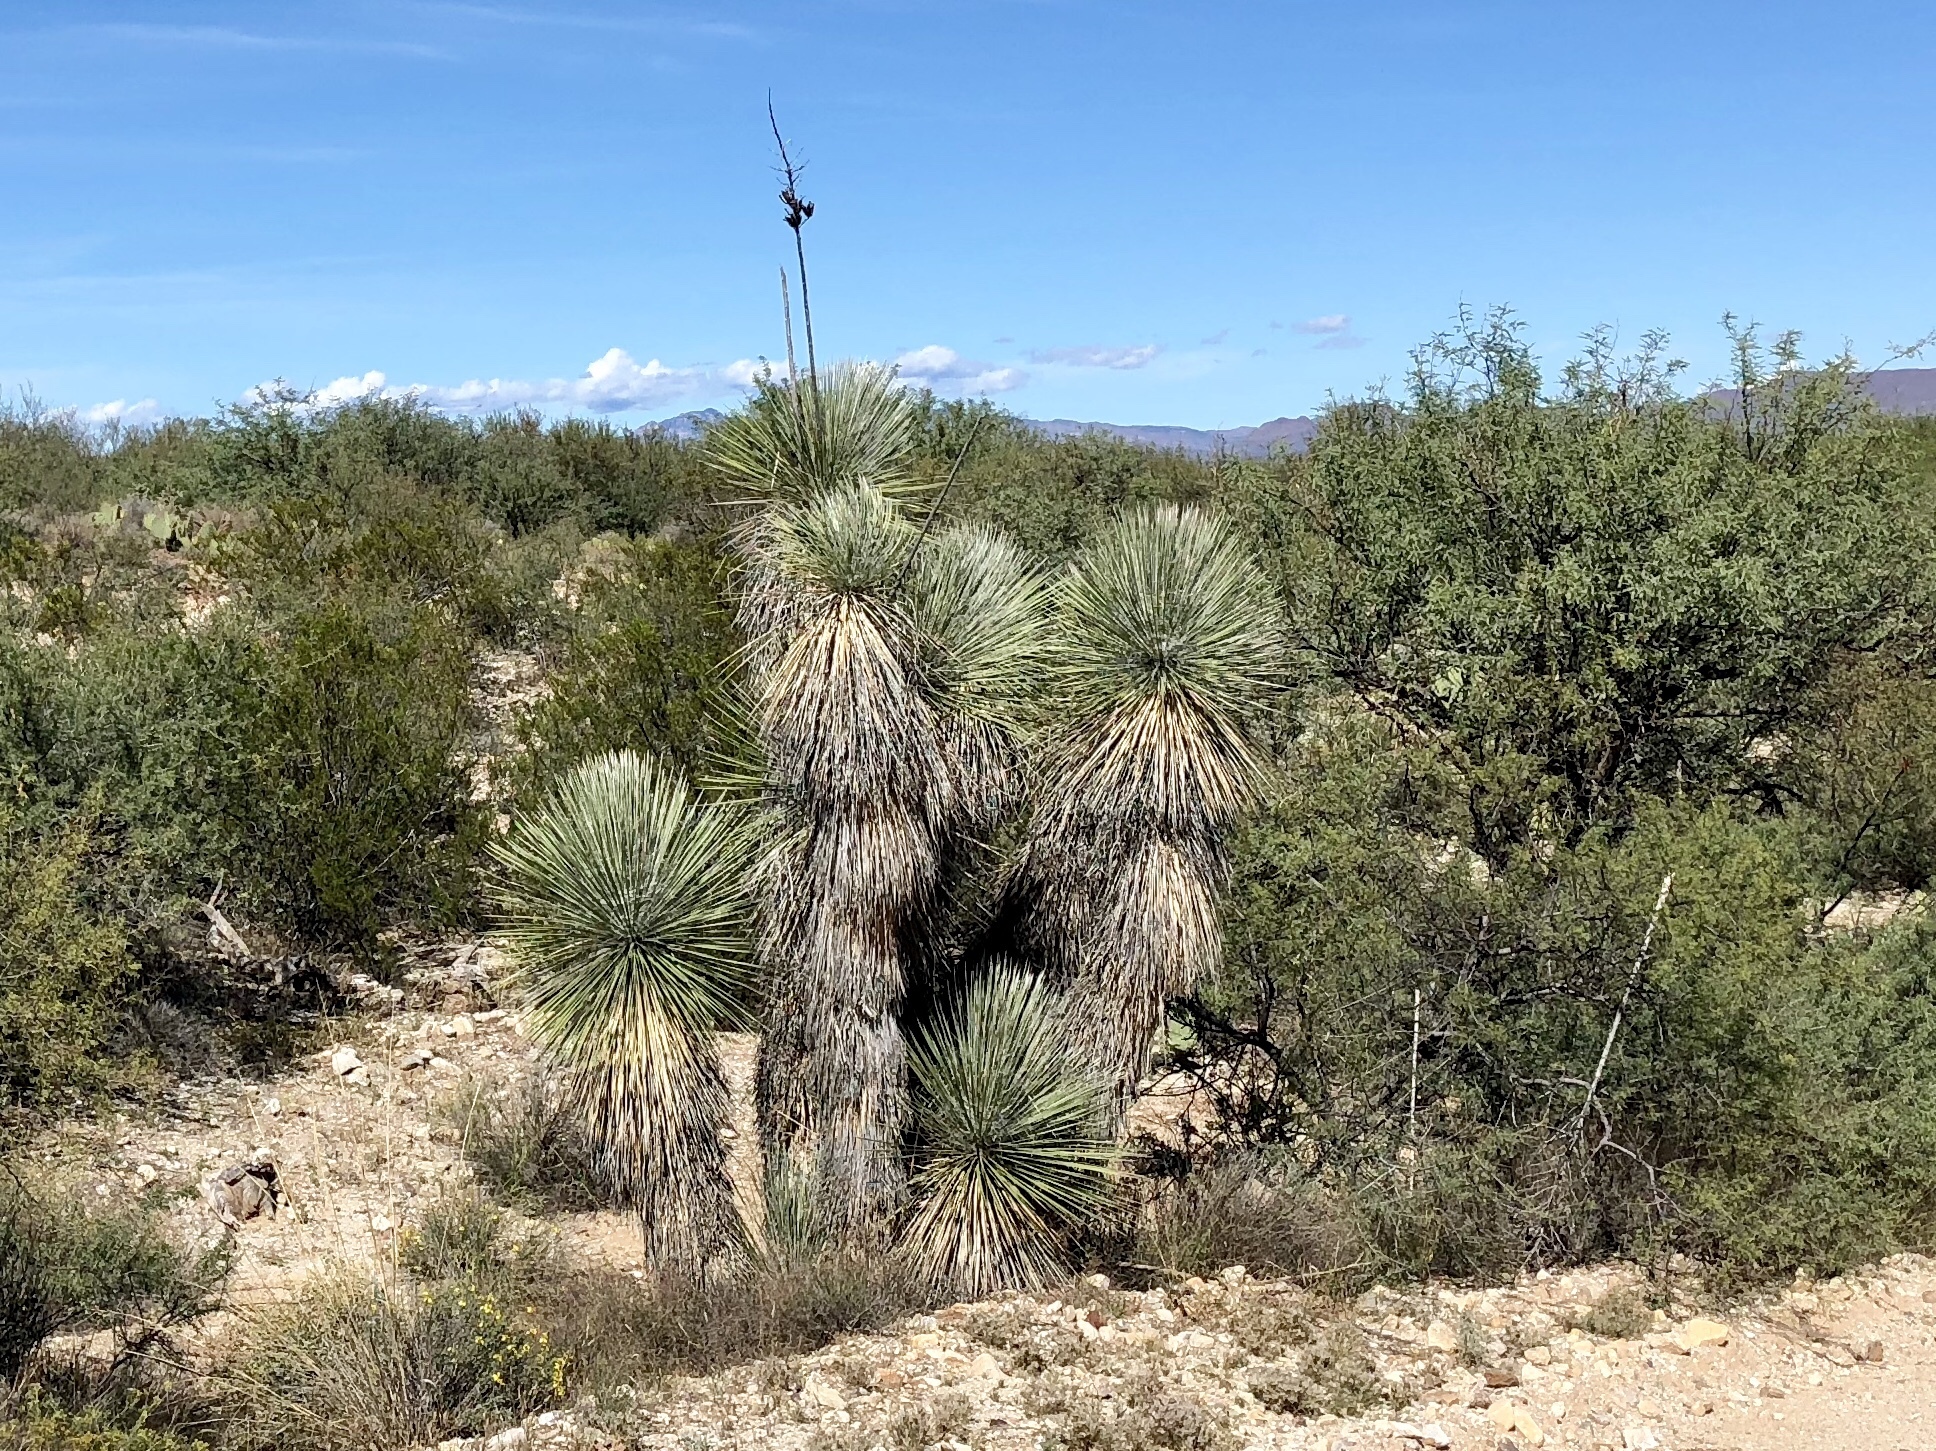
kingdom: Plantae
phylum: Tracheophyta
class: Liliopsida
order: Asparagales
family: Asparagaceae
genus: Yucca
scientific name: Yucca elata
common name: Palmella
